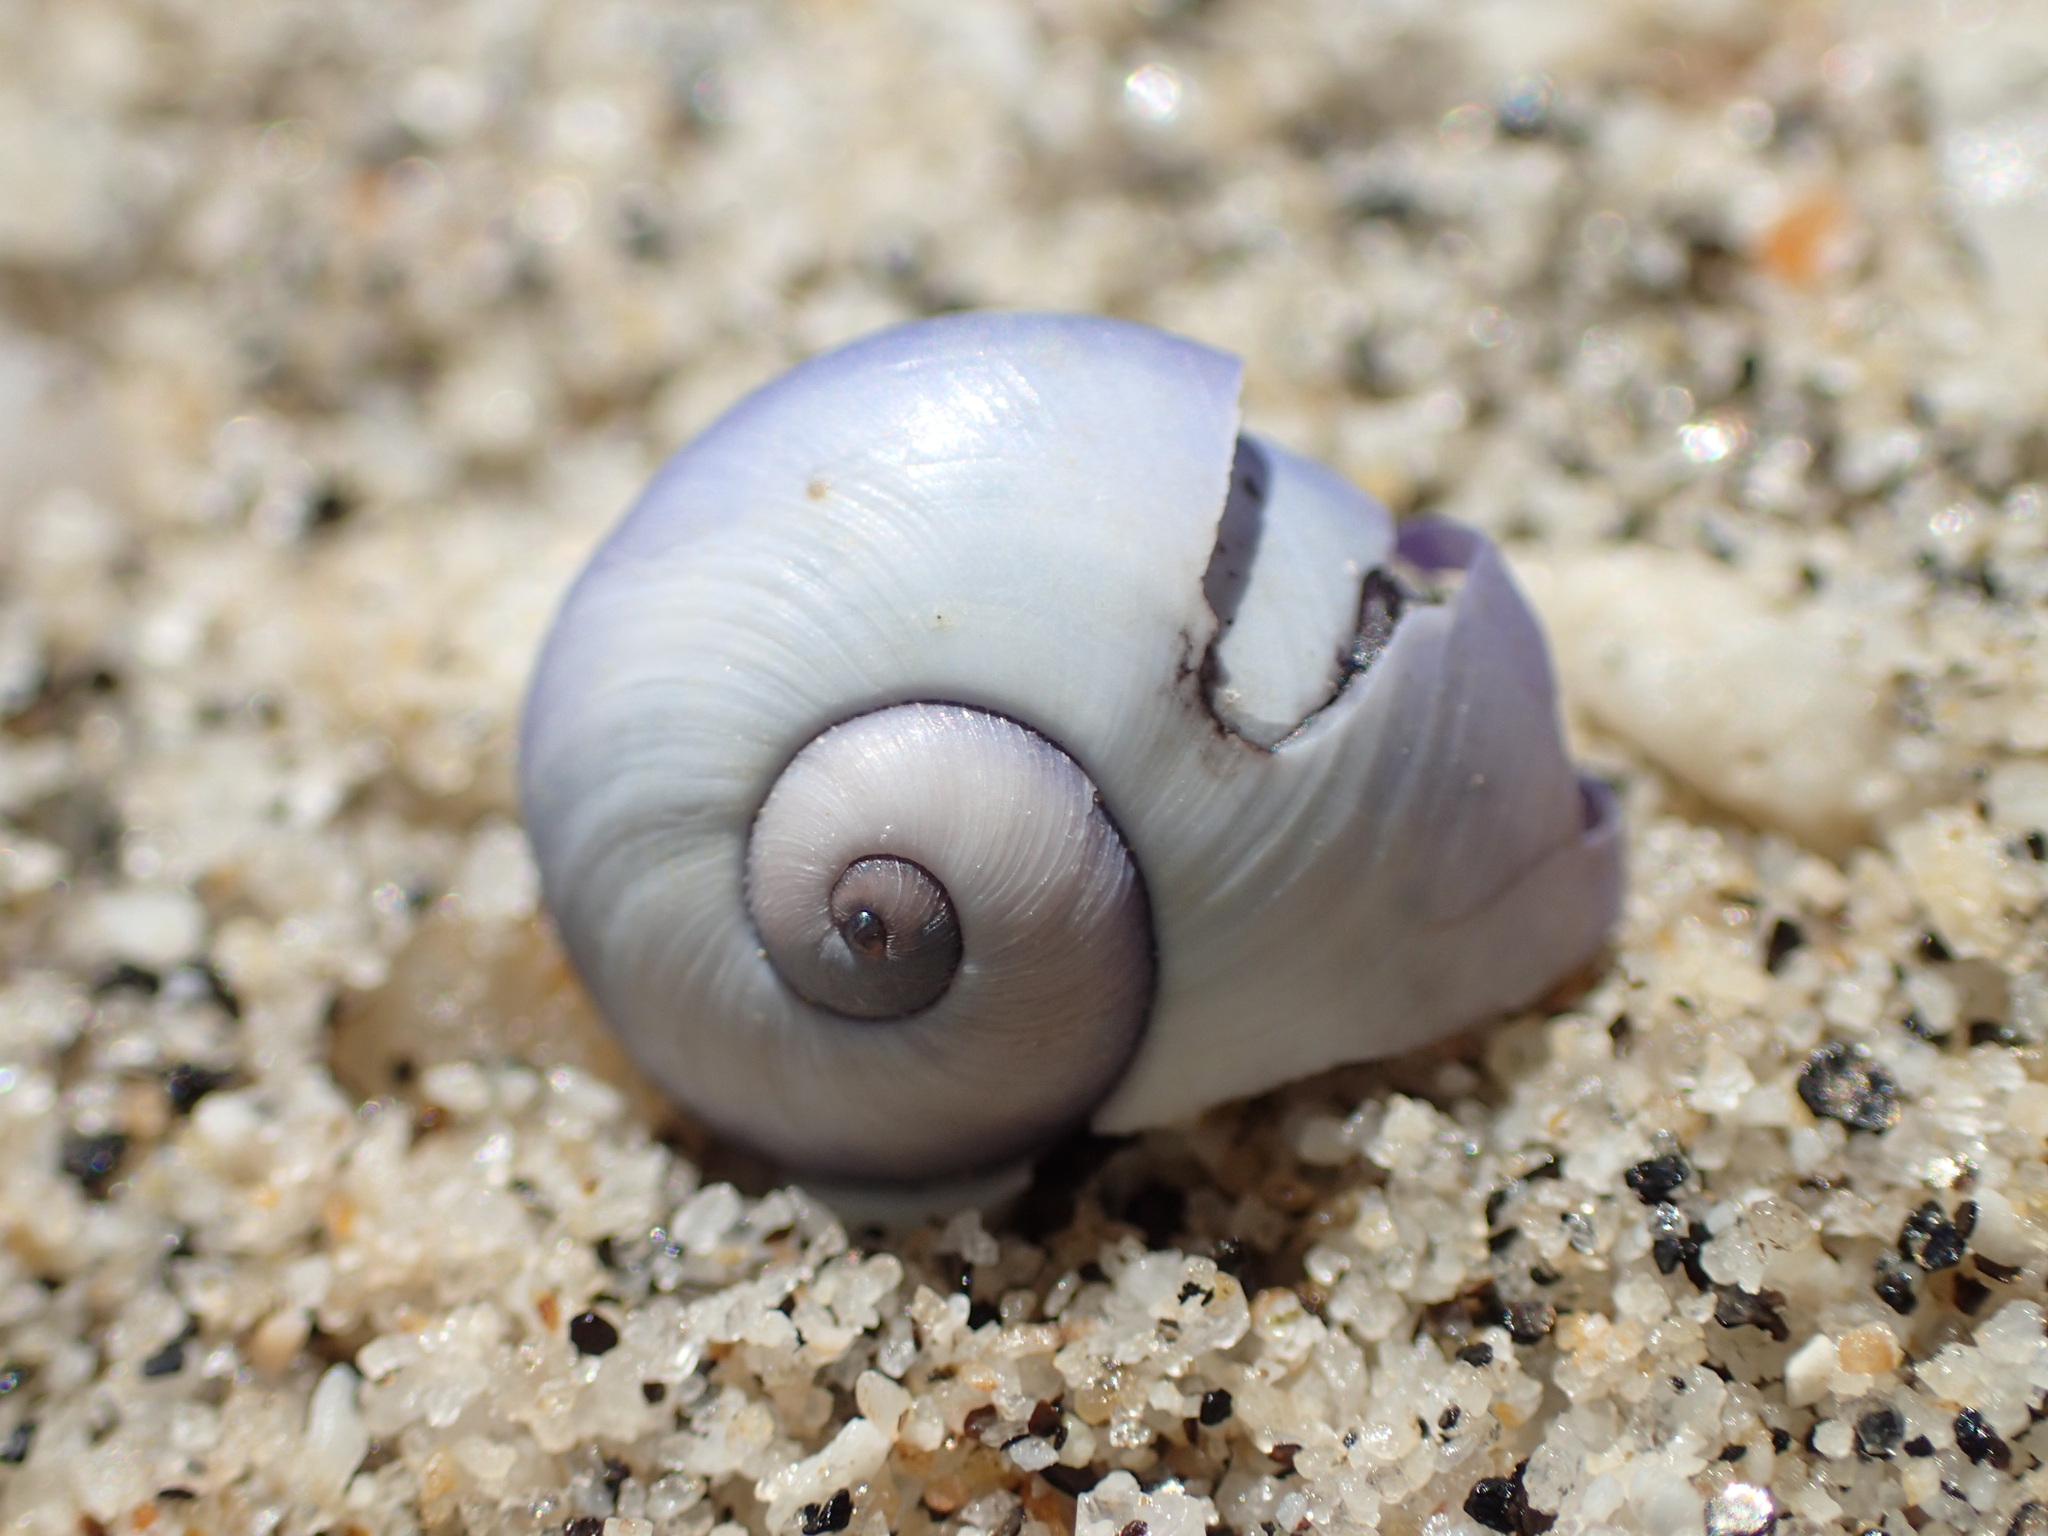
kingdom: Animalia
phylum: Mollusca
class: Gastropoda
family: Epitoniidae
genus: Janthina
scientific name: Janthina janthina
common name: Common janthina
